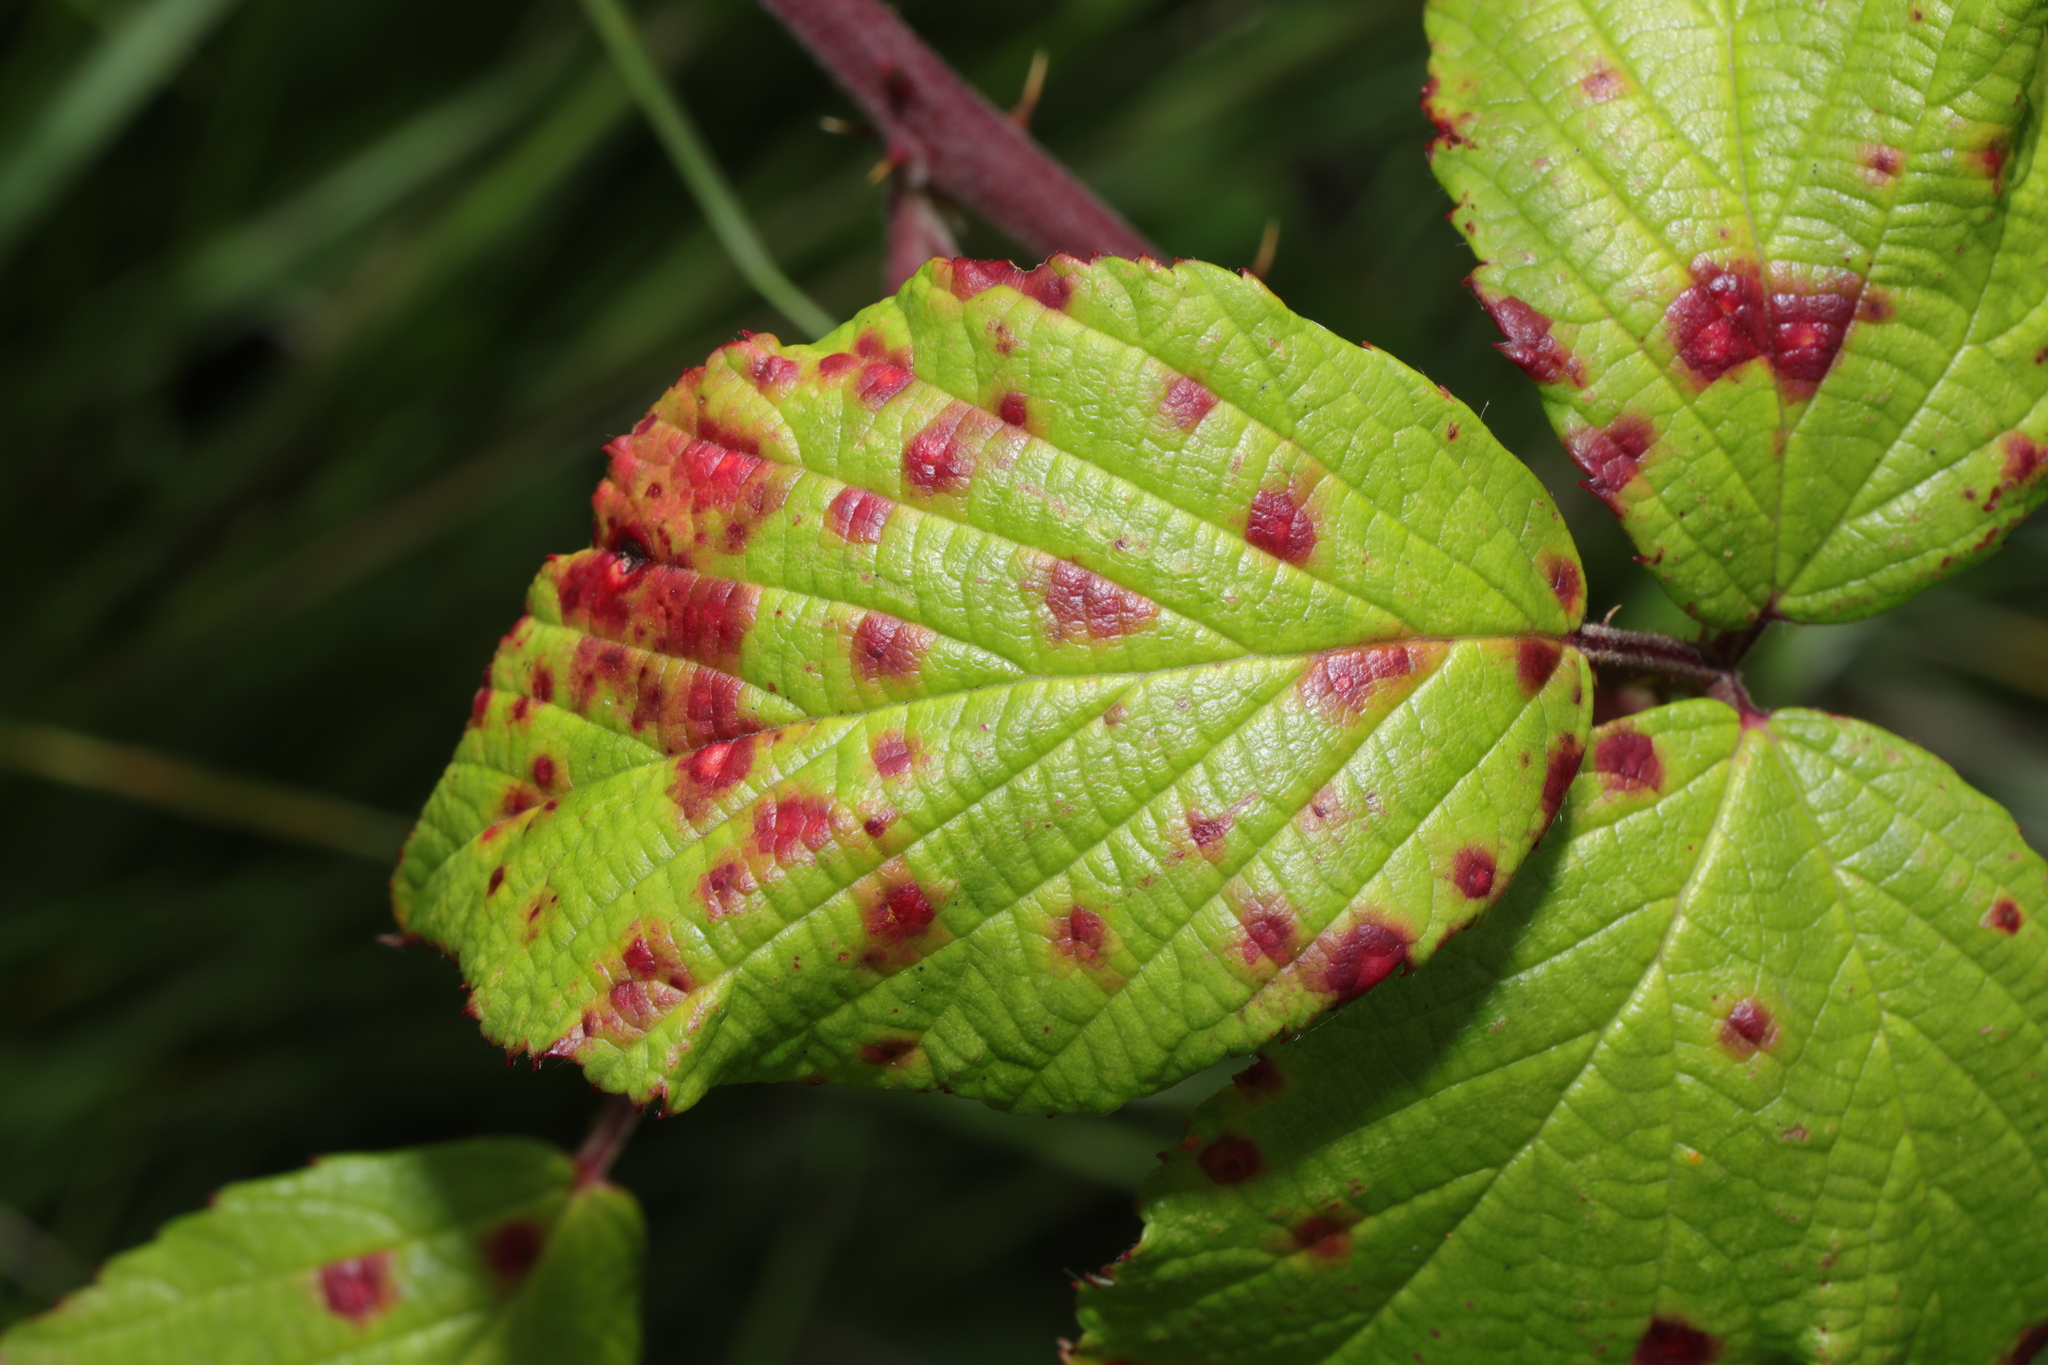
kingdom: Fungi
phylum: Basidiomycota
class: Pucciniomycetes
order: Pucciniales
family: Phragmidiaceae
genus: Phragmidium
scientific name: Phragmidium violaceum
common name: Violet bramble rust
